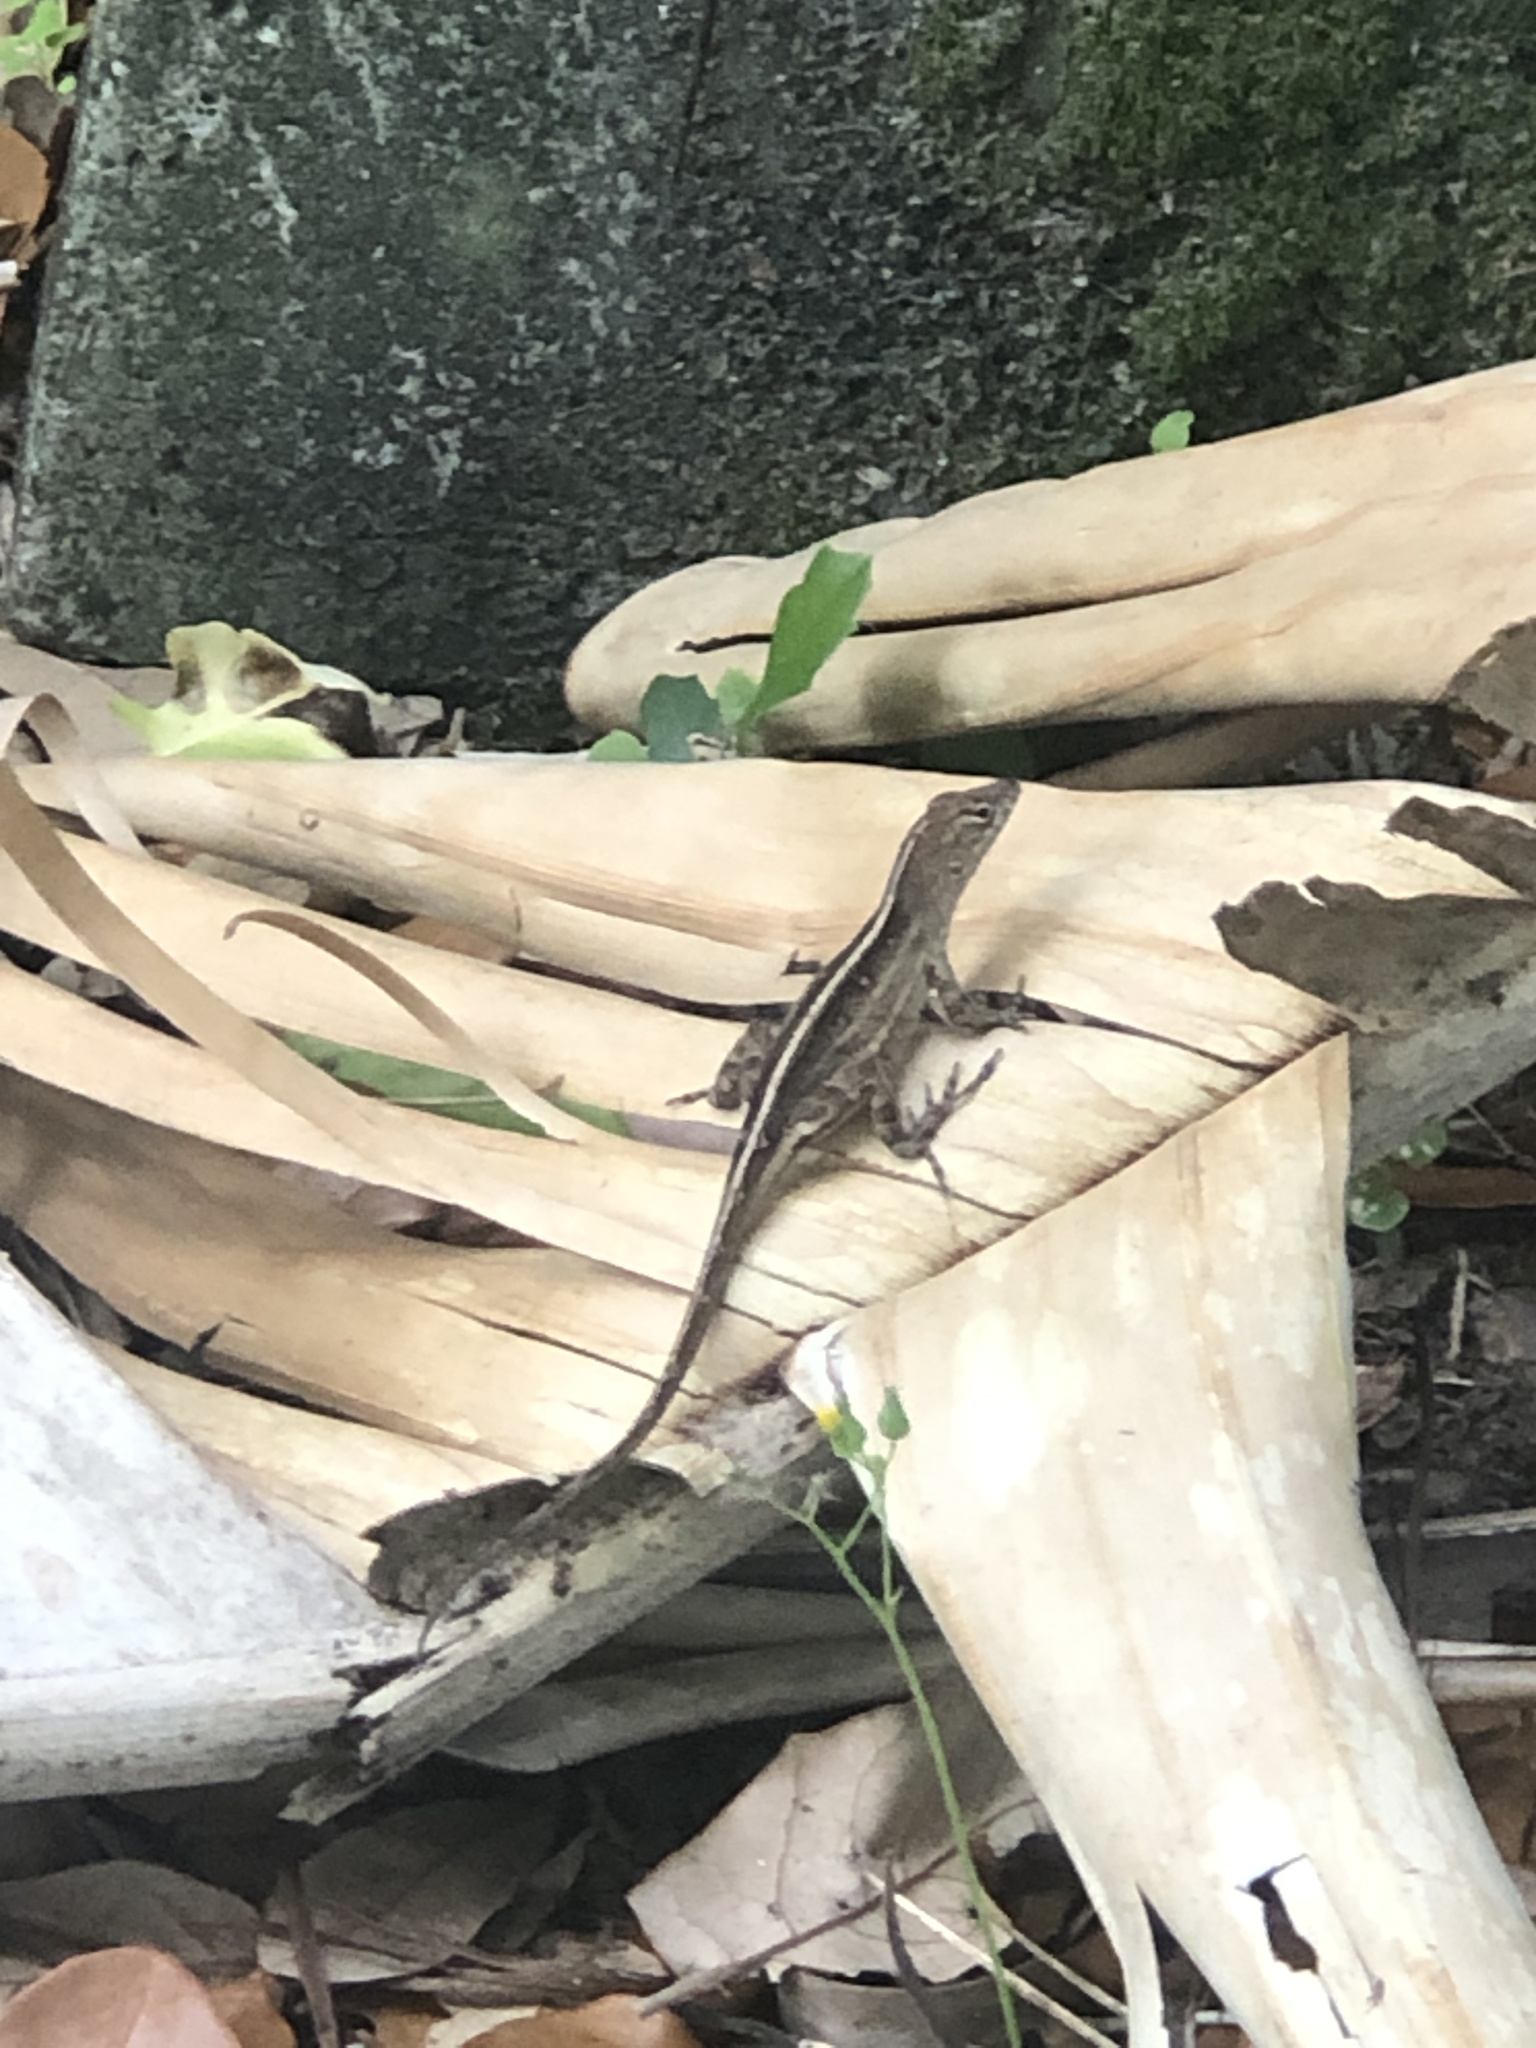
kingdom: Animalia
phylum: Chordata
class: Squamata
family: Dactyloidae
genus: Anolis
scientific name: Anolis sagrei
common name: Brown anole
